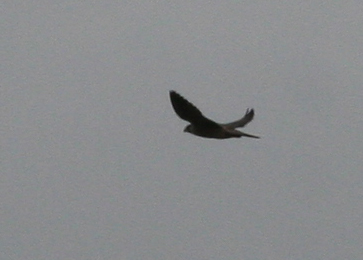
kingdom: Animalia
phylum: Chordata
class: Aves
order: Falconiformes
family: Falconidae
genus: Falco
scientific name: Falco peregrinus
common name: Peregrine falcon
